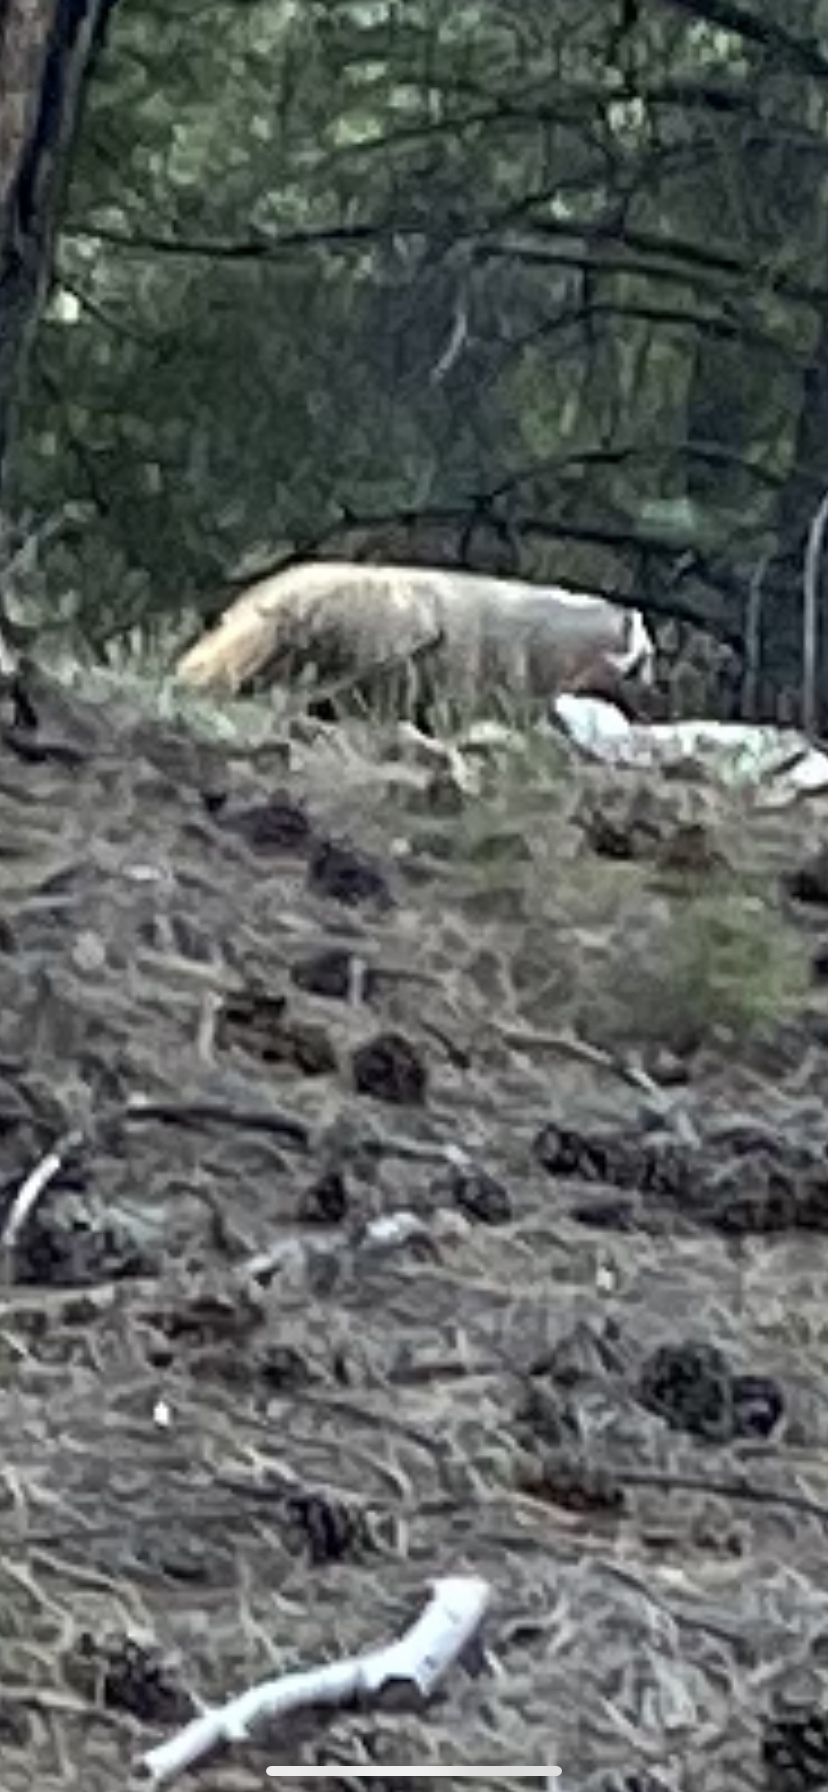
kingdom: Animalia
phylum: Chordata
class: Mammalia
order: Carnivora
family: Mustelidae
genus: Taxidea
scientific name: Taxidea taxus
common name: American badger
